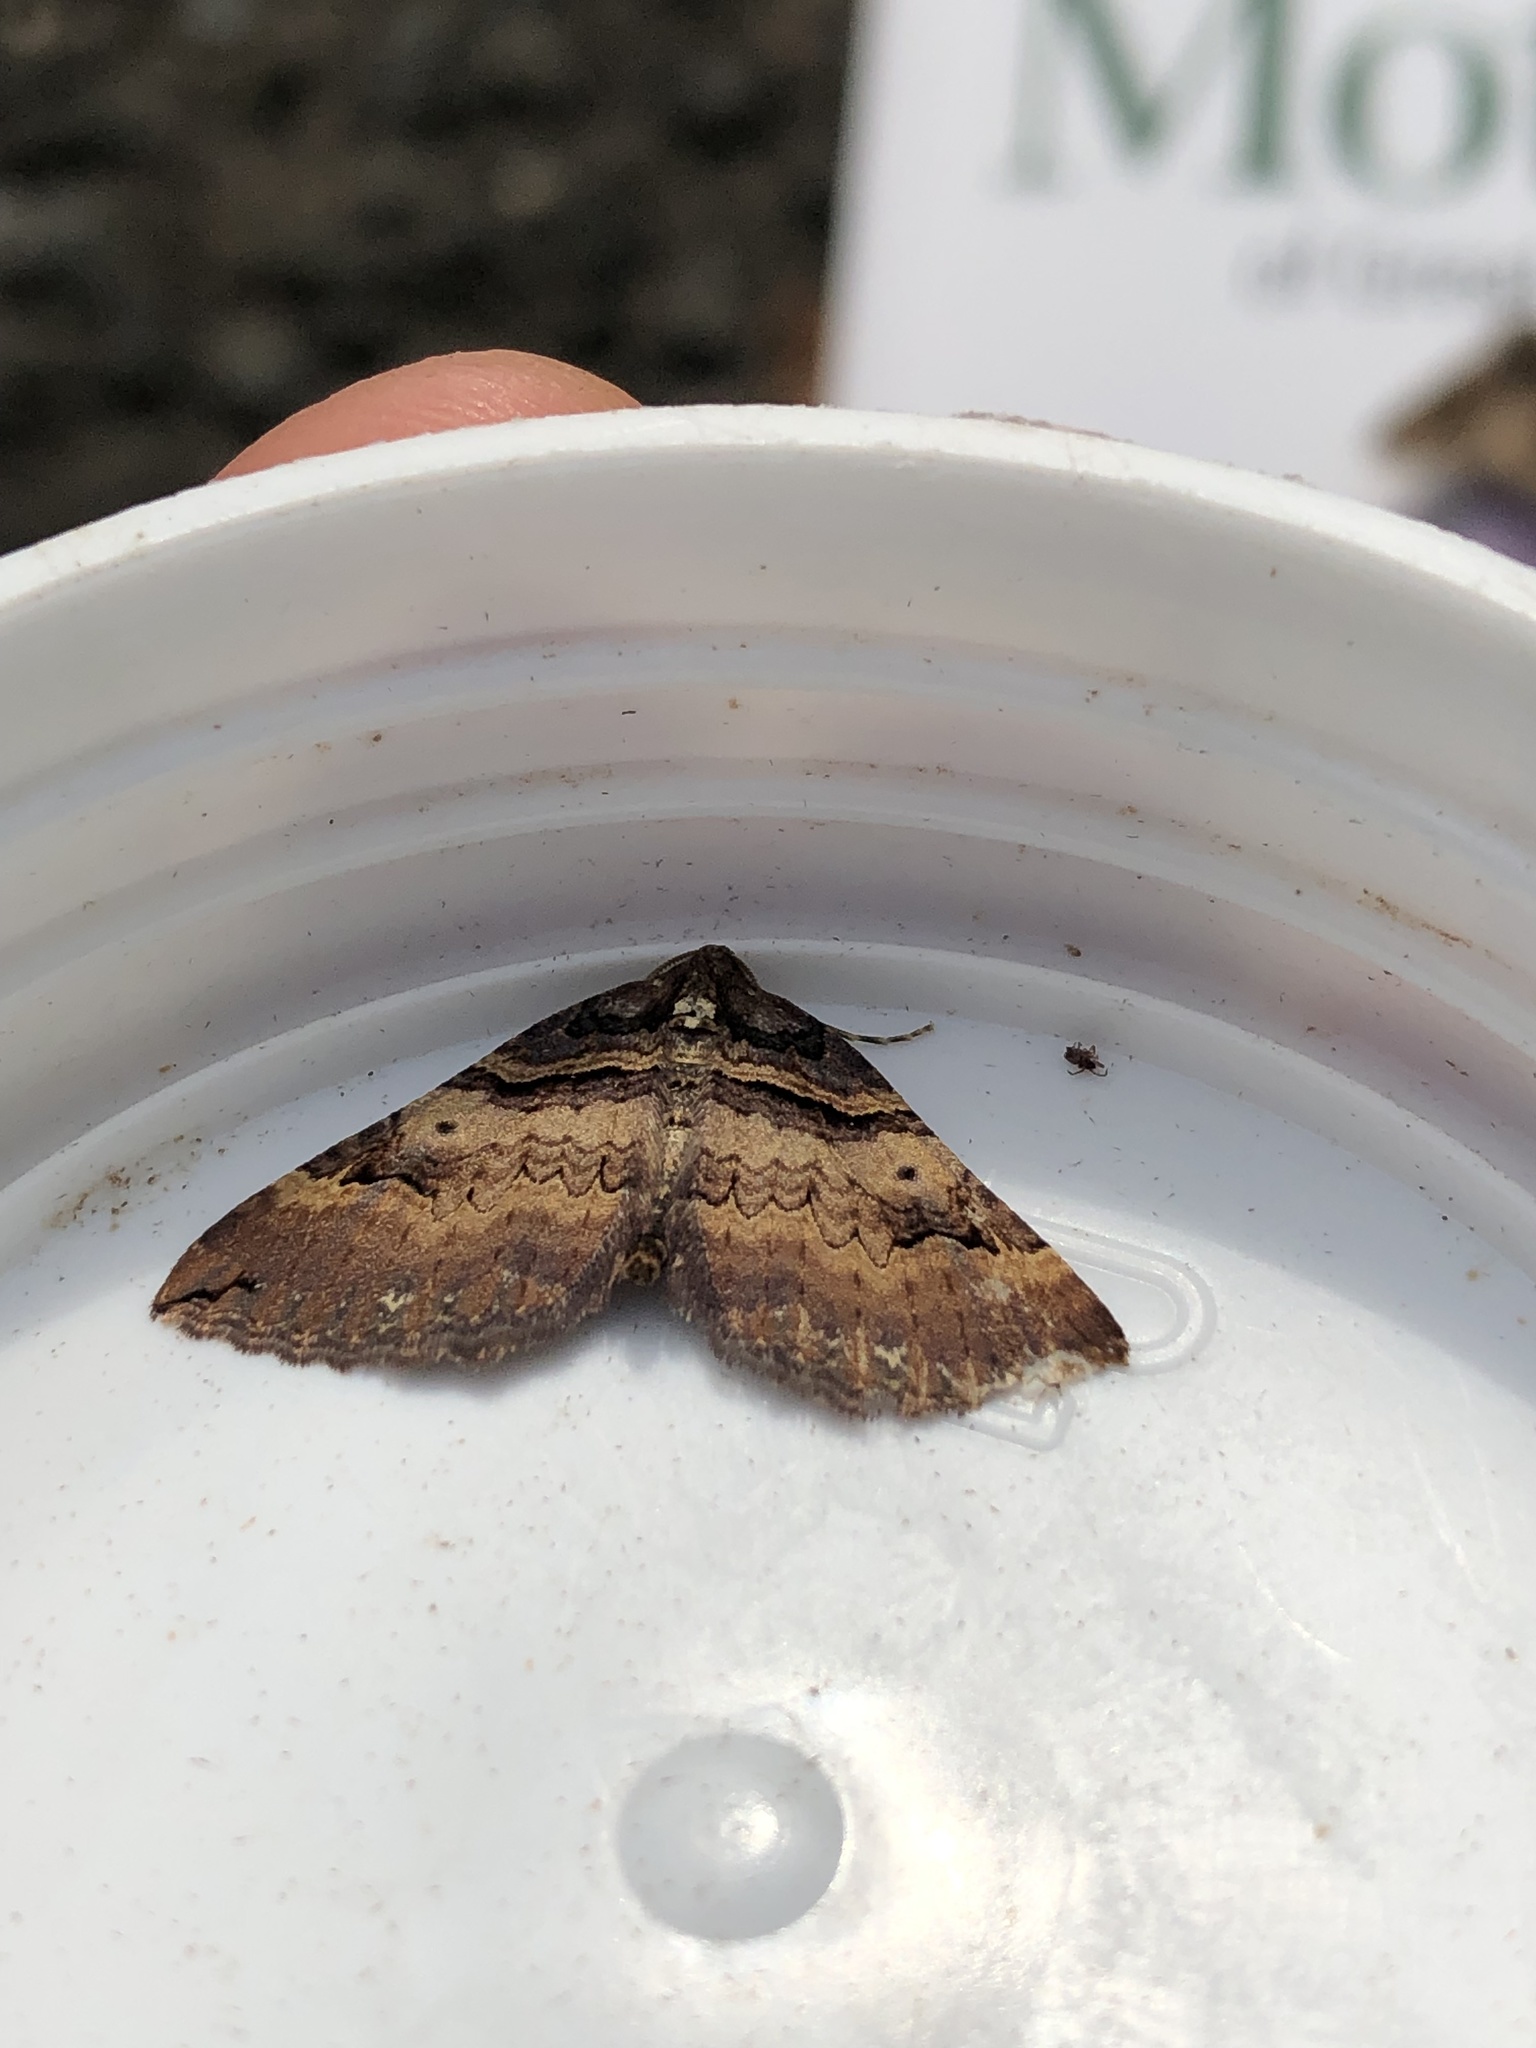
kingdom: Animalia
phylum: Arthropoda
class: Insecta
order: Lepidoptera
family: Geometridae
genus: Anticlea
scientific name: Anticlea badiata
